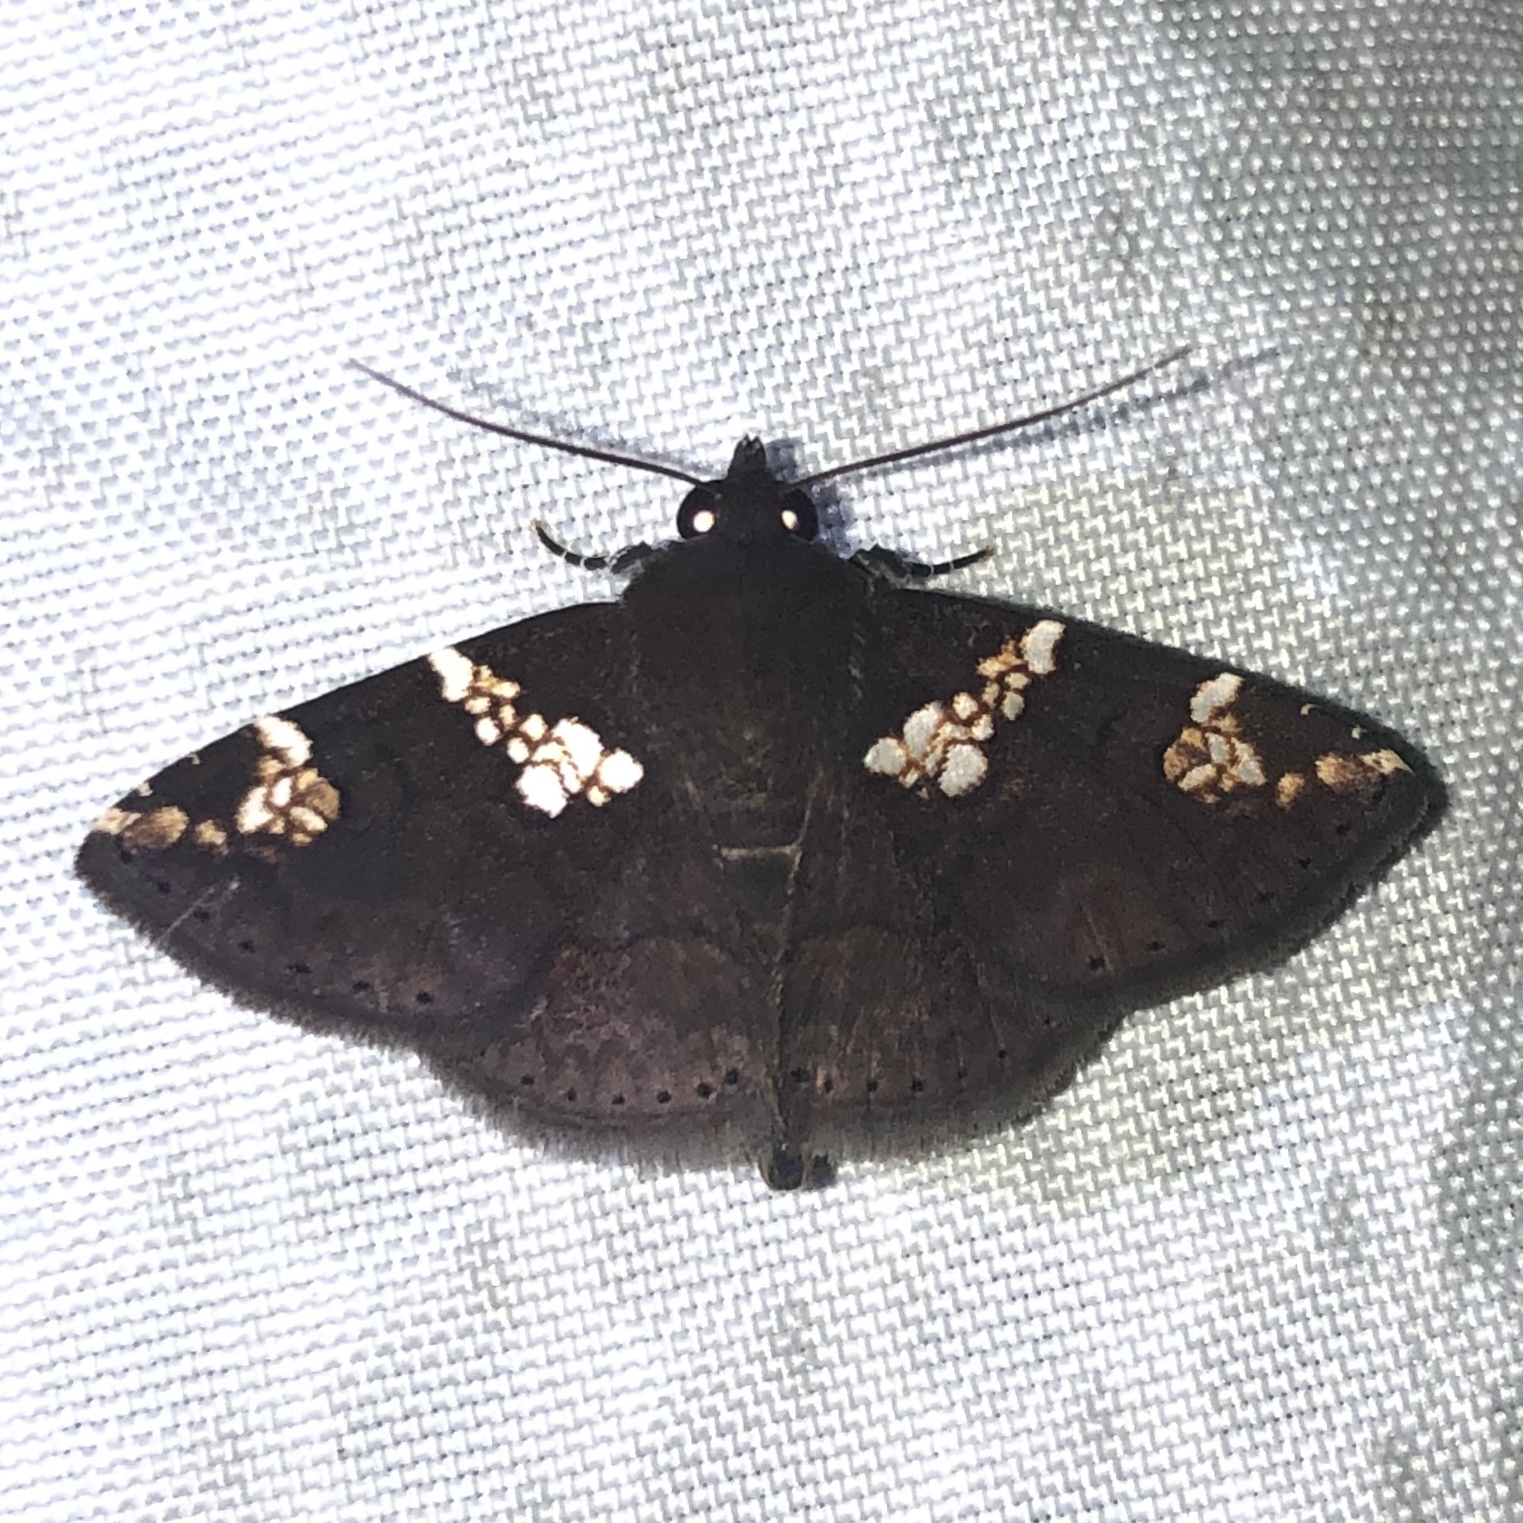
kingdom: Animalia
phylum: Arthropoda
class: Insecta
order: Lepidoptera
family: Erebidae
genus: Antiblemma
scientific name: Antiblemma perornata
